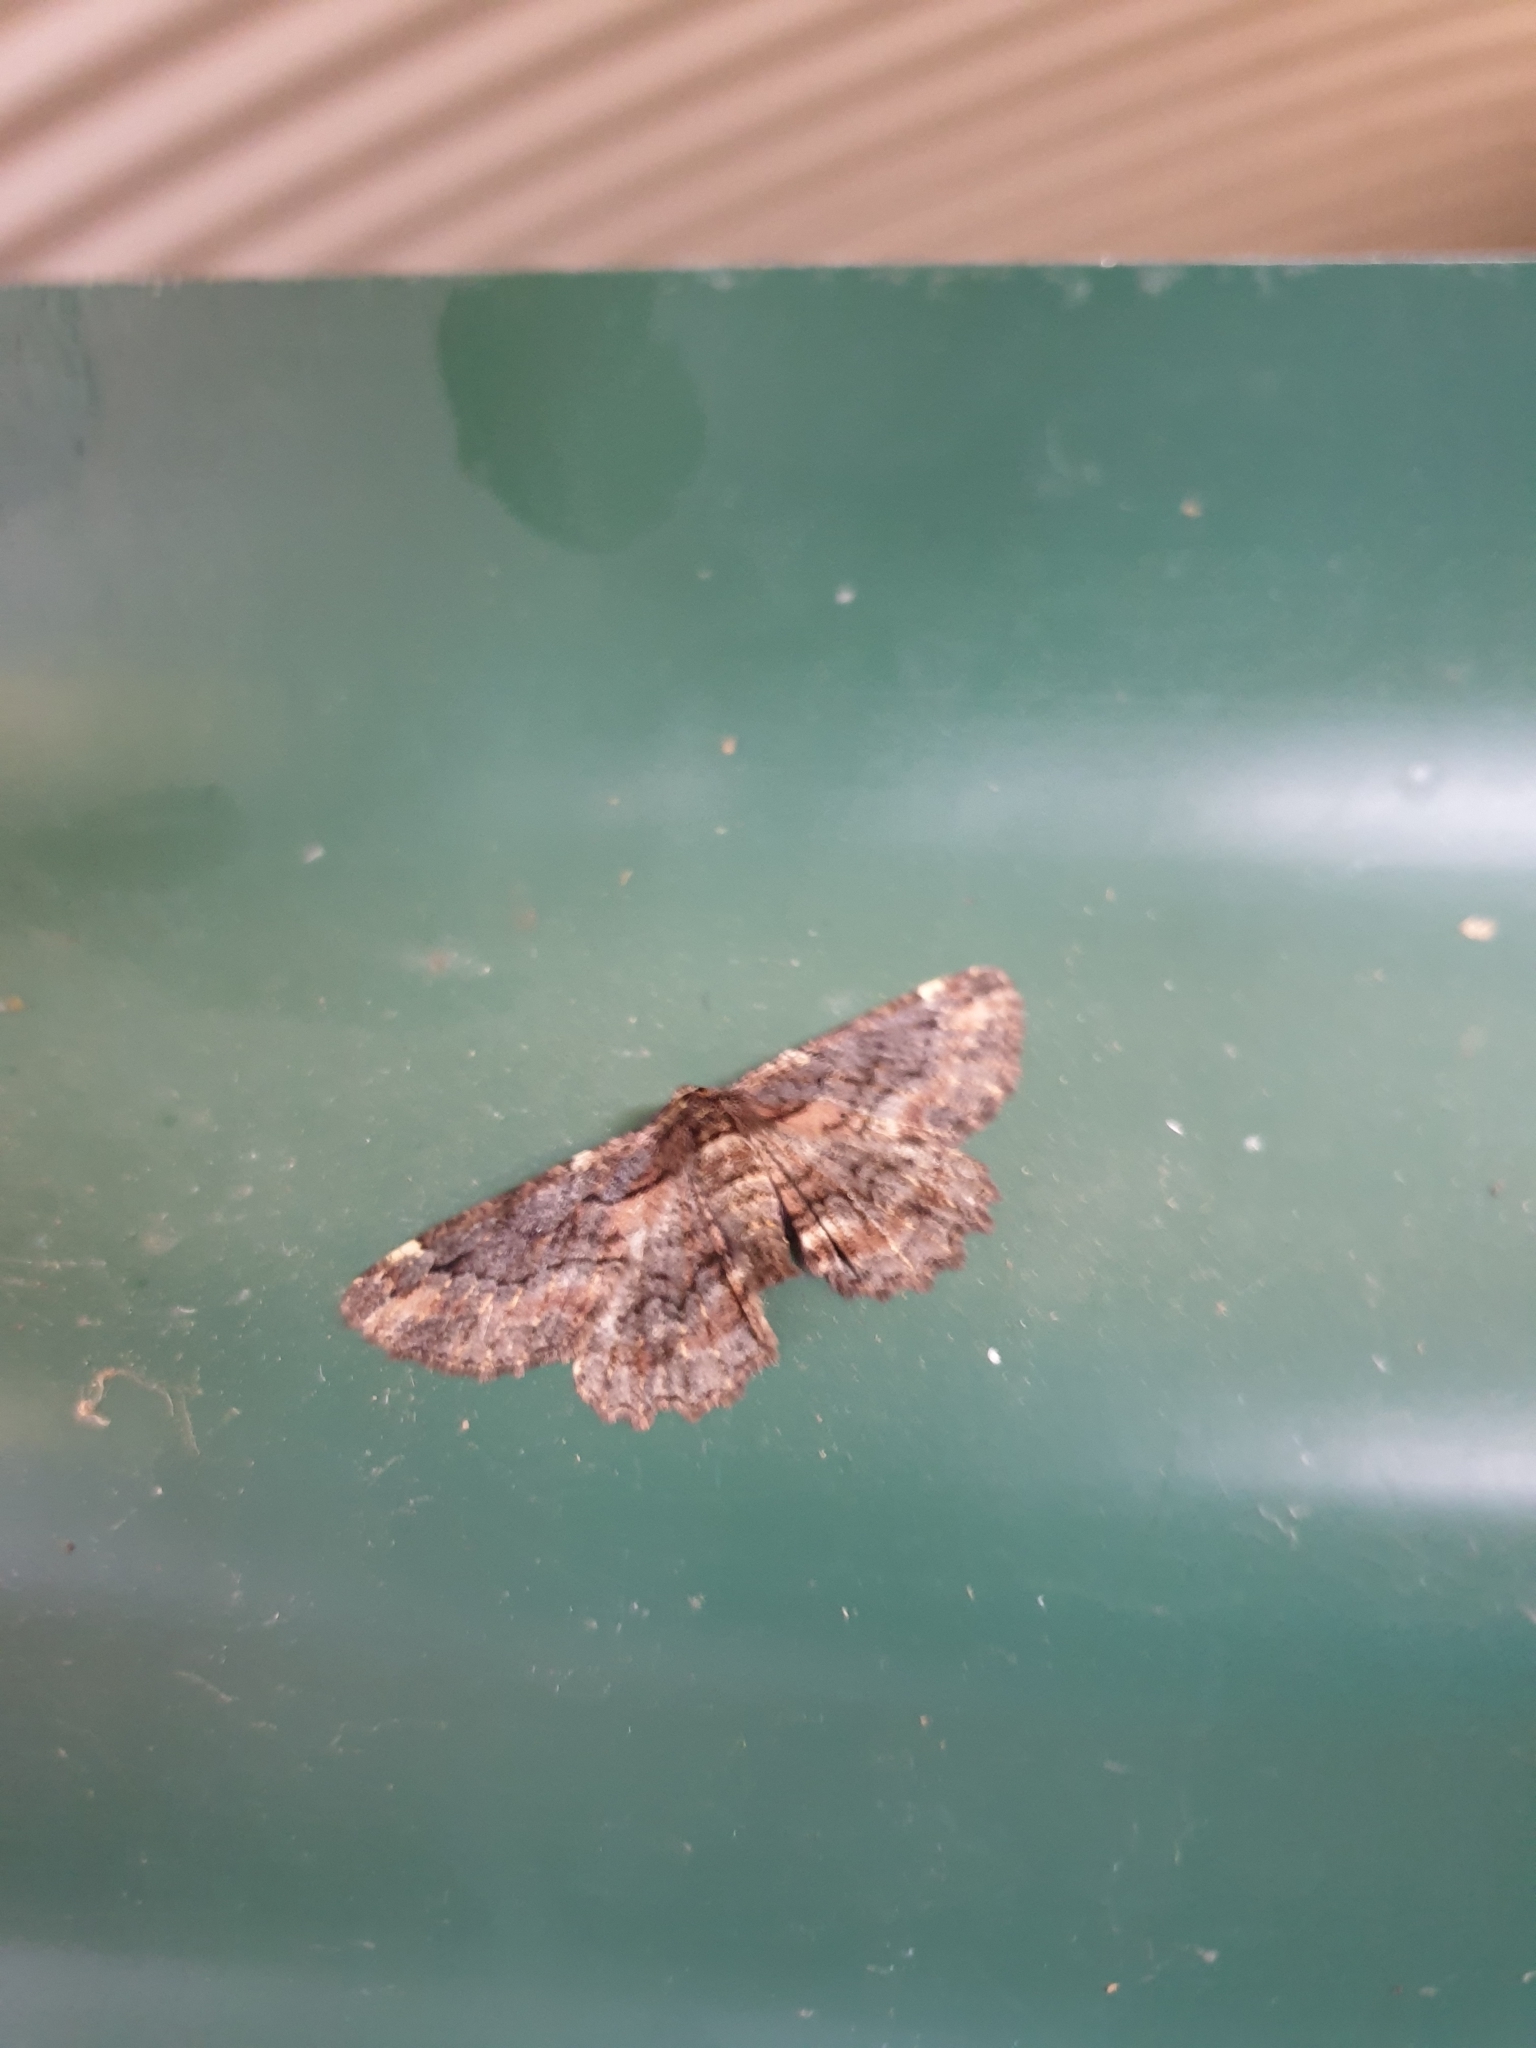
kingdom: Animalia
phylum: Arthropoda
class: Insecta
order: Lepidoptera
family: Geometridae
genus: Pholodes
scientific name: Pholodes sinistraria
